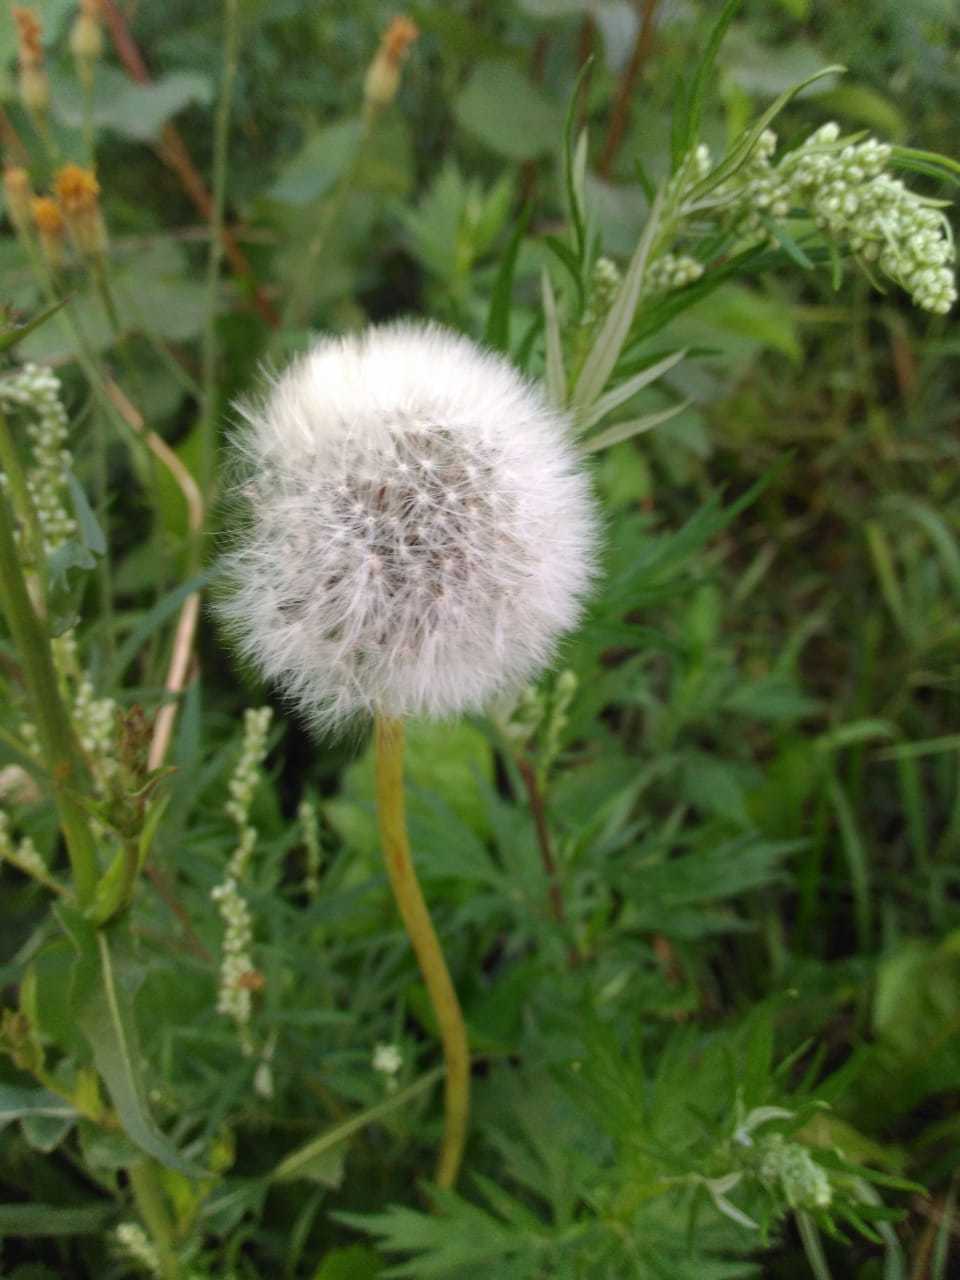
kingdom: Plantae
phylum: Tracheophyta
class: Magnoliopsida
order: Asterales
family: Asteraceae
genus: Taraxacum
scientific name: Taraxacum officinale
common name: Common dandelion
